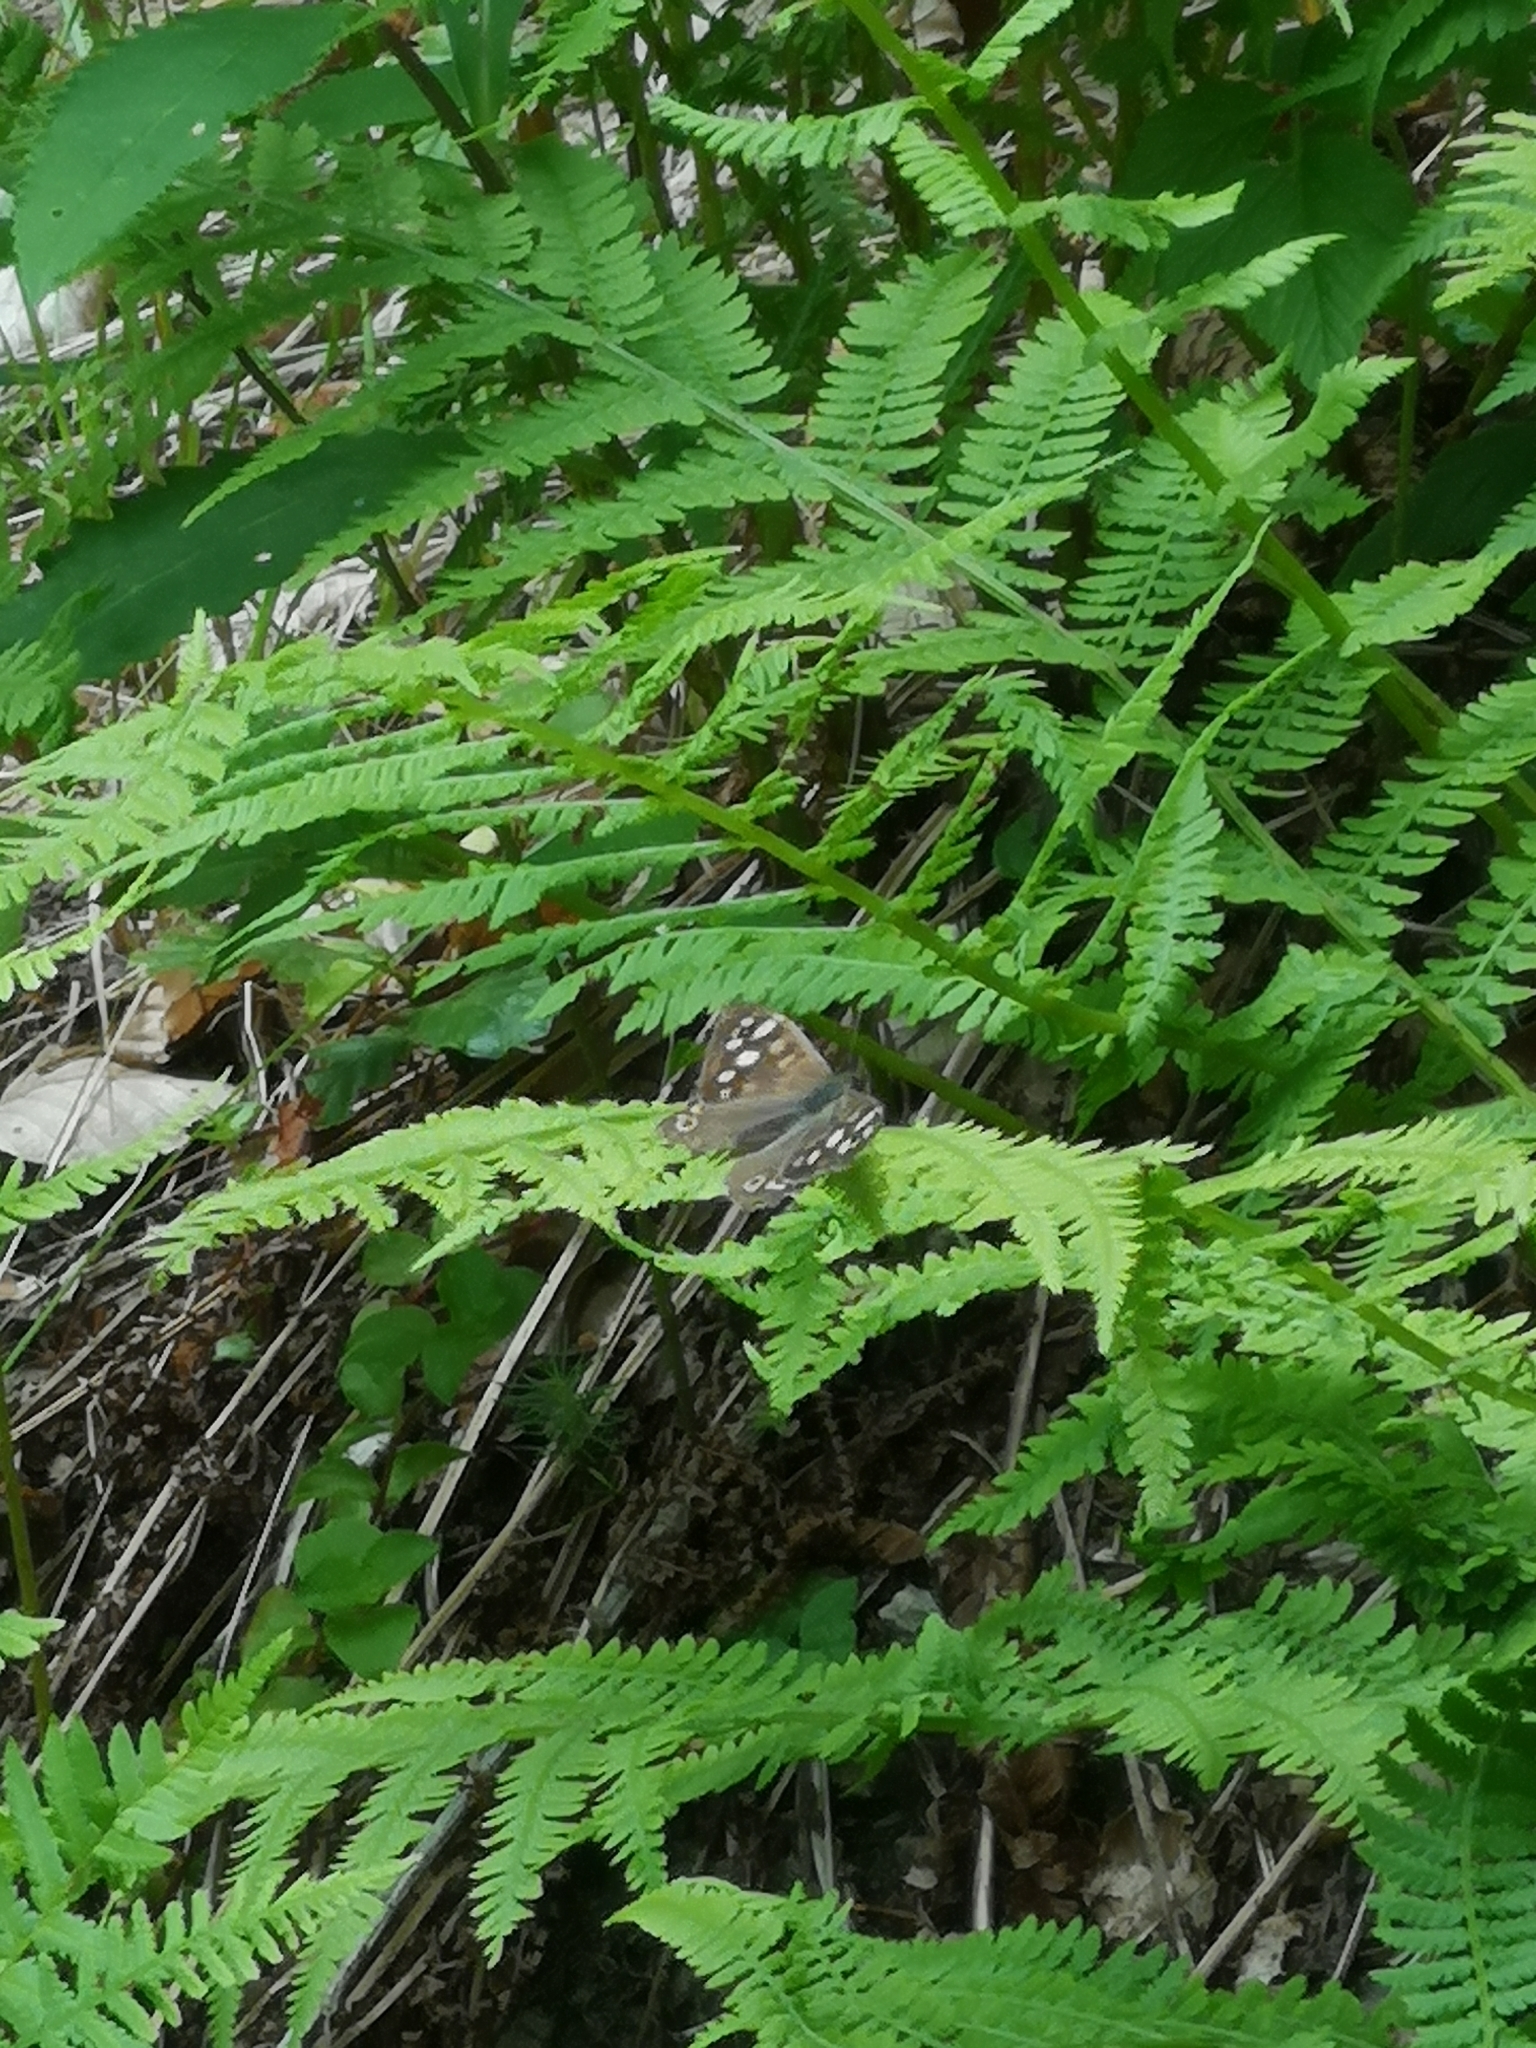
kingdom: Animalia
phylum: Arthropoda
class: Insecta
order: Lepidoptera
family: Nymphalidae
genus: Pararge
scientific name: Pararge aegeria
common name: Speckled wood
